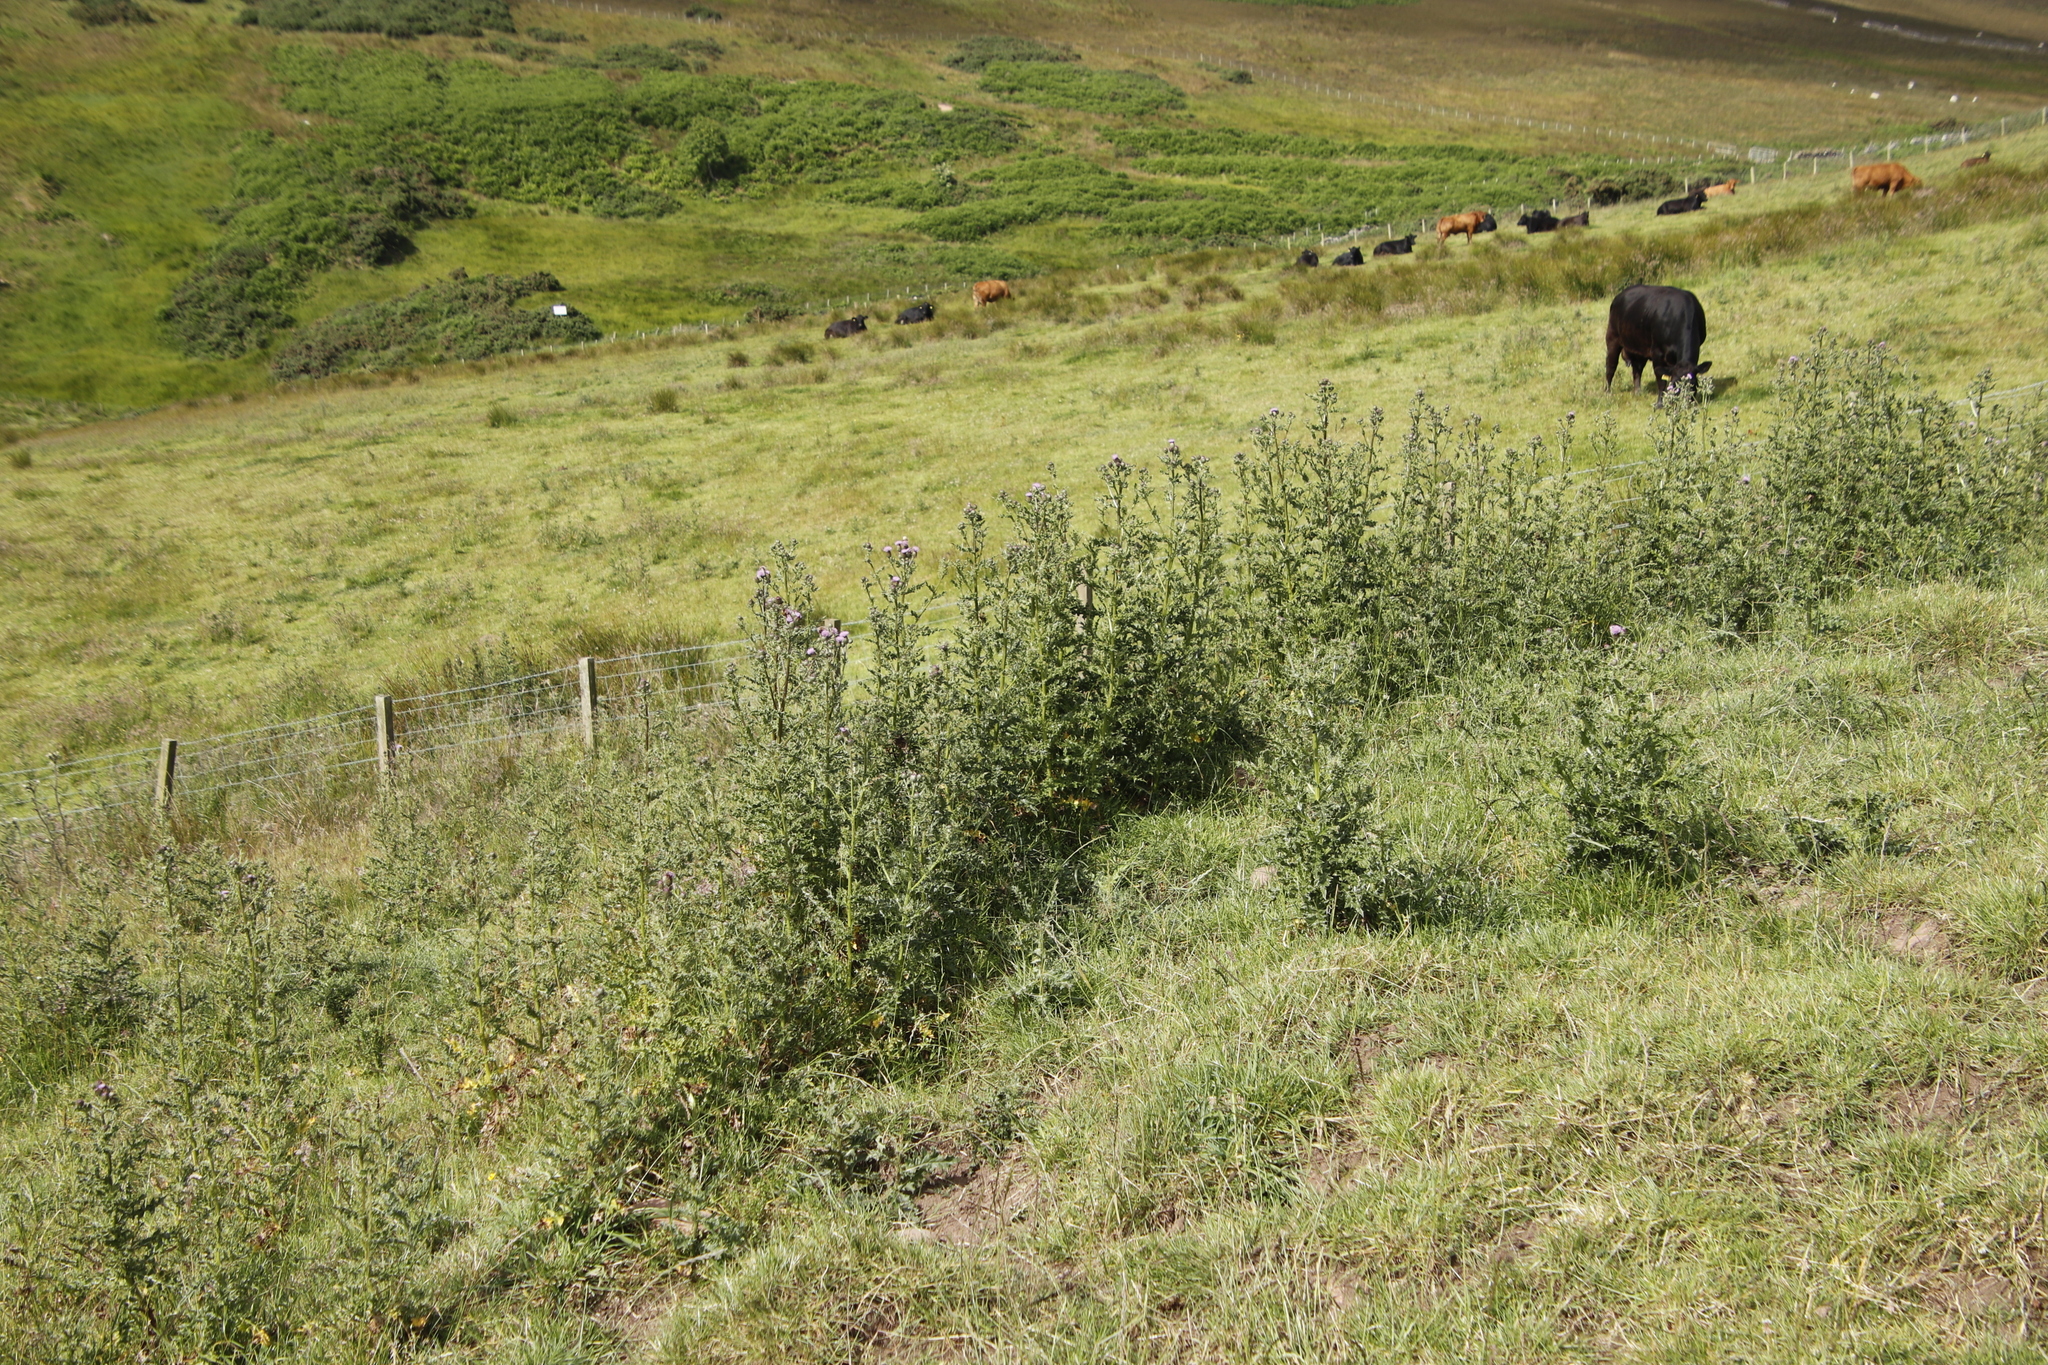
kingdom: Plantae
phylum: Tracheophyta
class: Magnoliopsida
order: Asterales
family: Asteraceae
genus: Cirsium
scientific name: Cirsium arvense
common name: Creeping thistle
